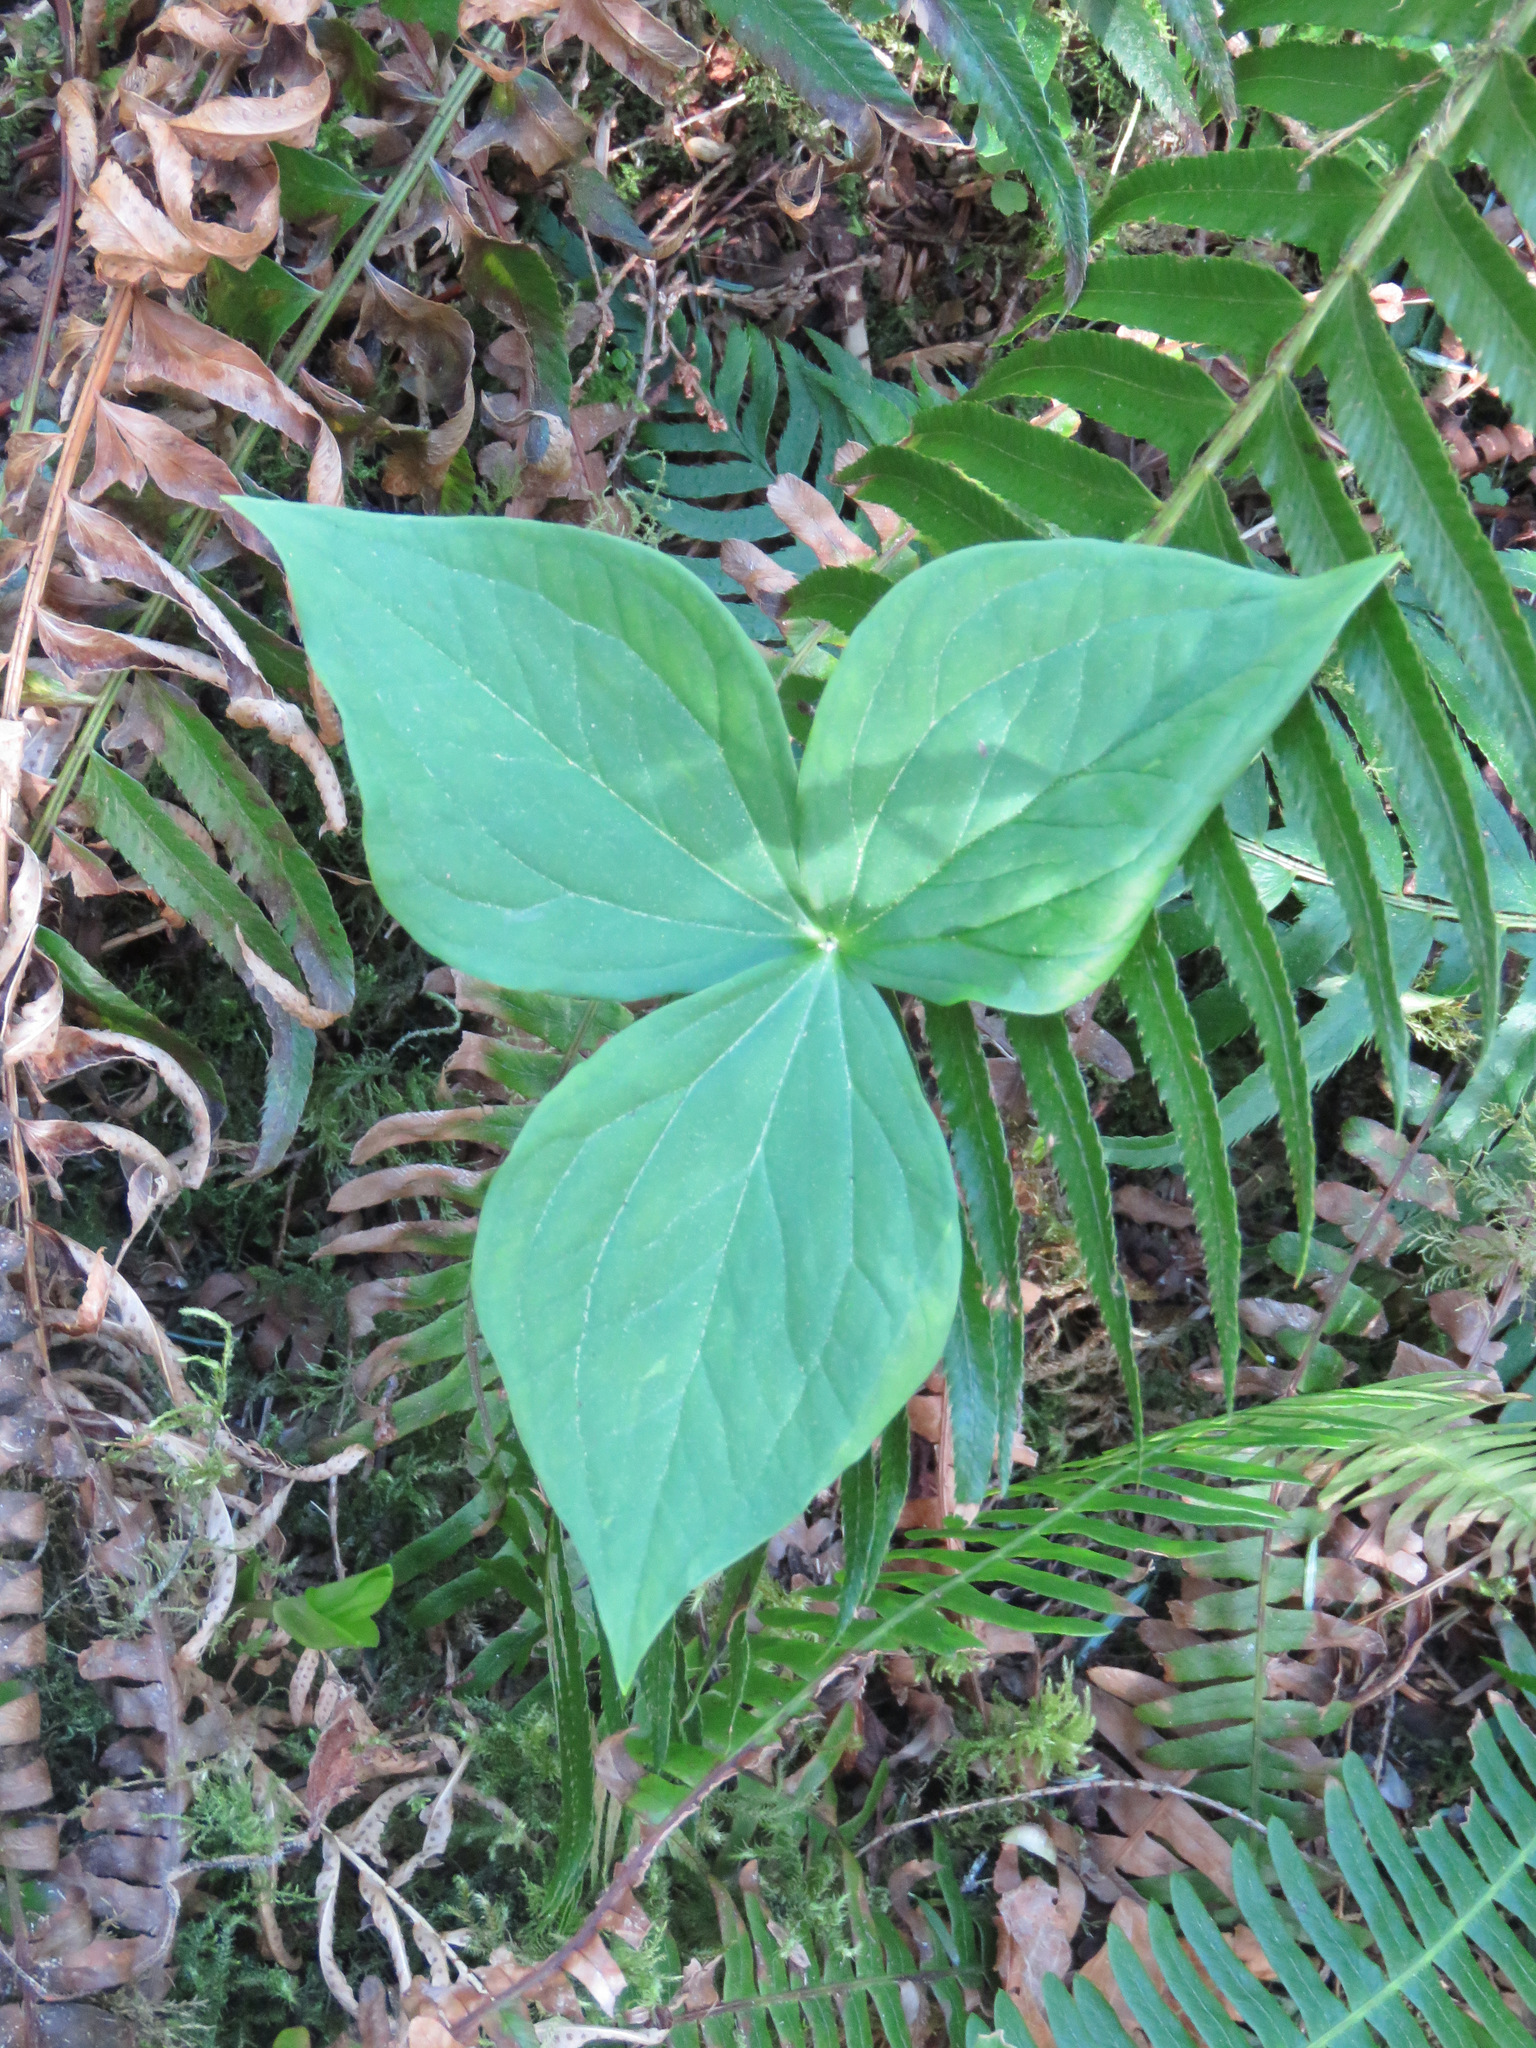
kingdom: Plantae
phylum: Tracheophyta
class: Liliopsida
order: Liliales
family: Melanthiaceae
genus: Trillium
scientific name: Trillium ovatum
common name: Pacific trillium
